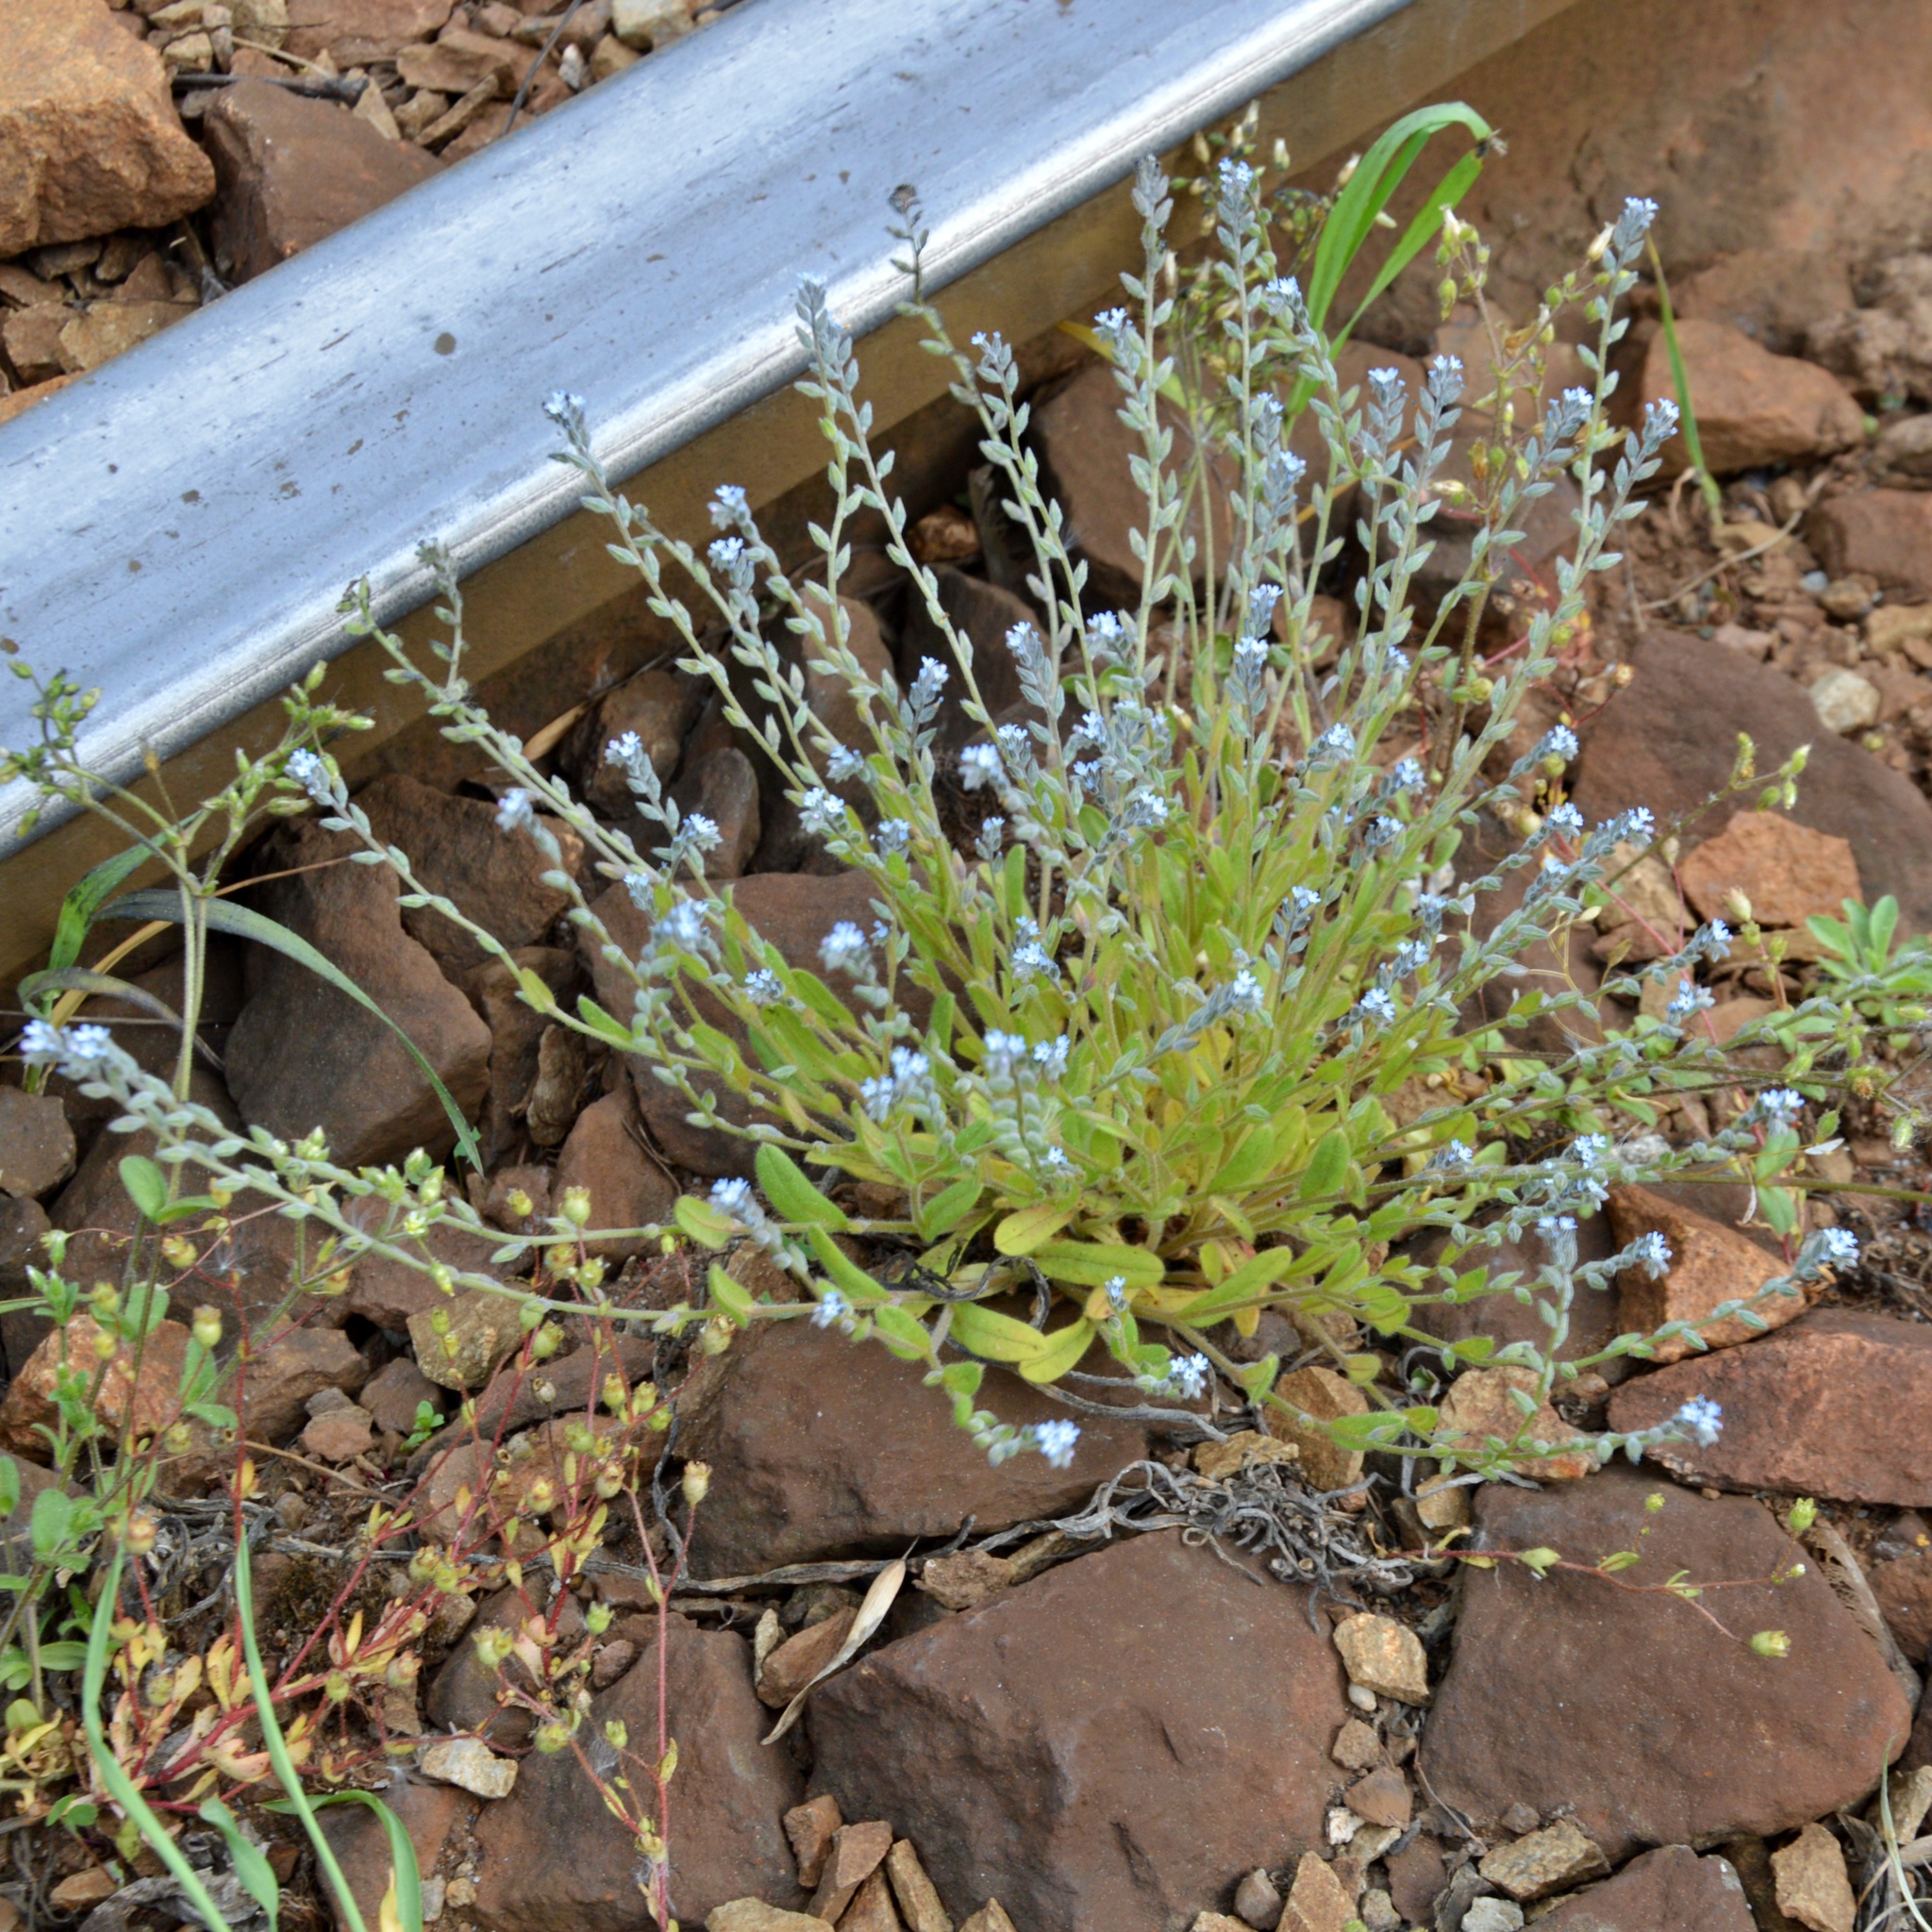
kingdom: Plantae
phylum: Tracheophyta
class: Magnoliopsida
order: Boraginales
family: Boraginaceae
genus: Myosotis
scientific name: Myosotis stricta
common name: Strict forget-me-not
